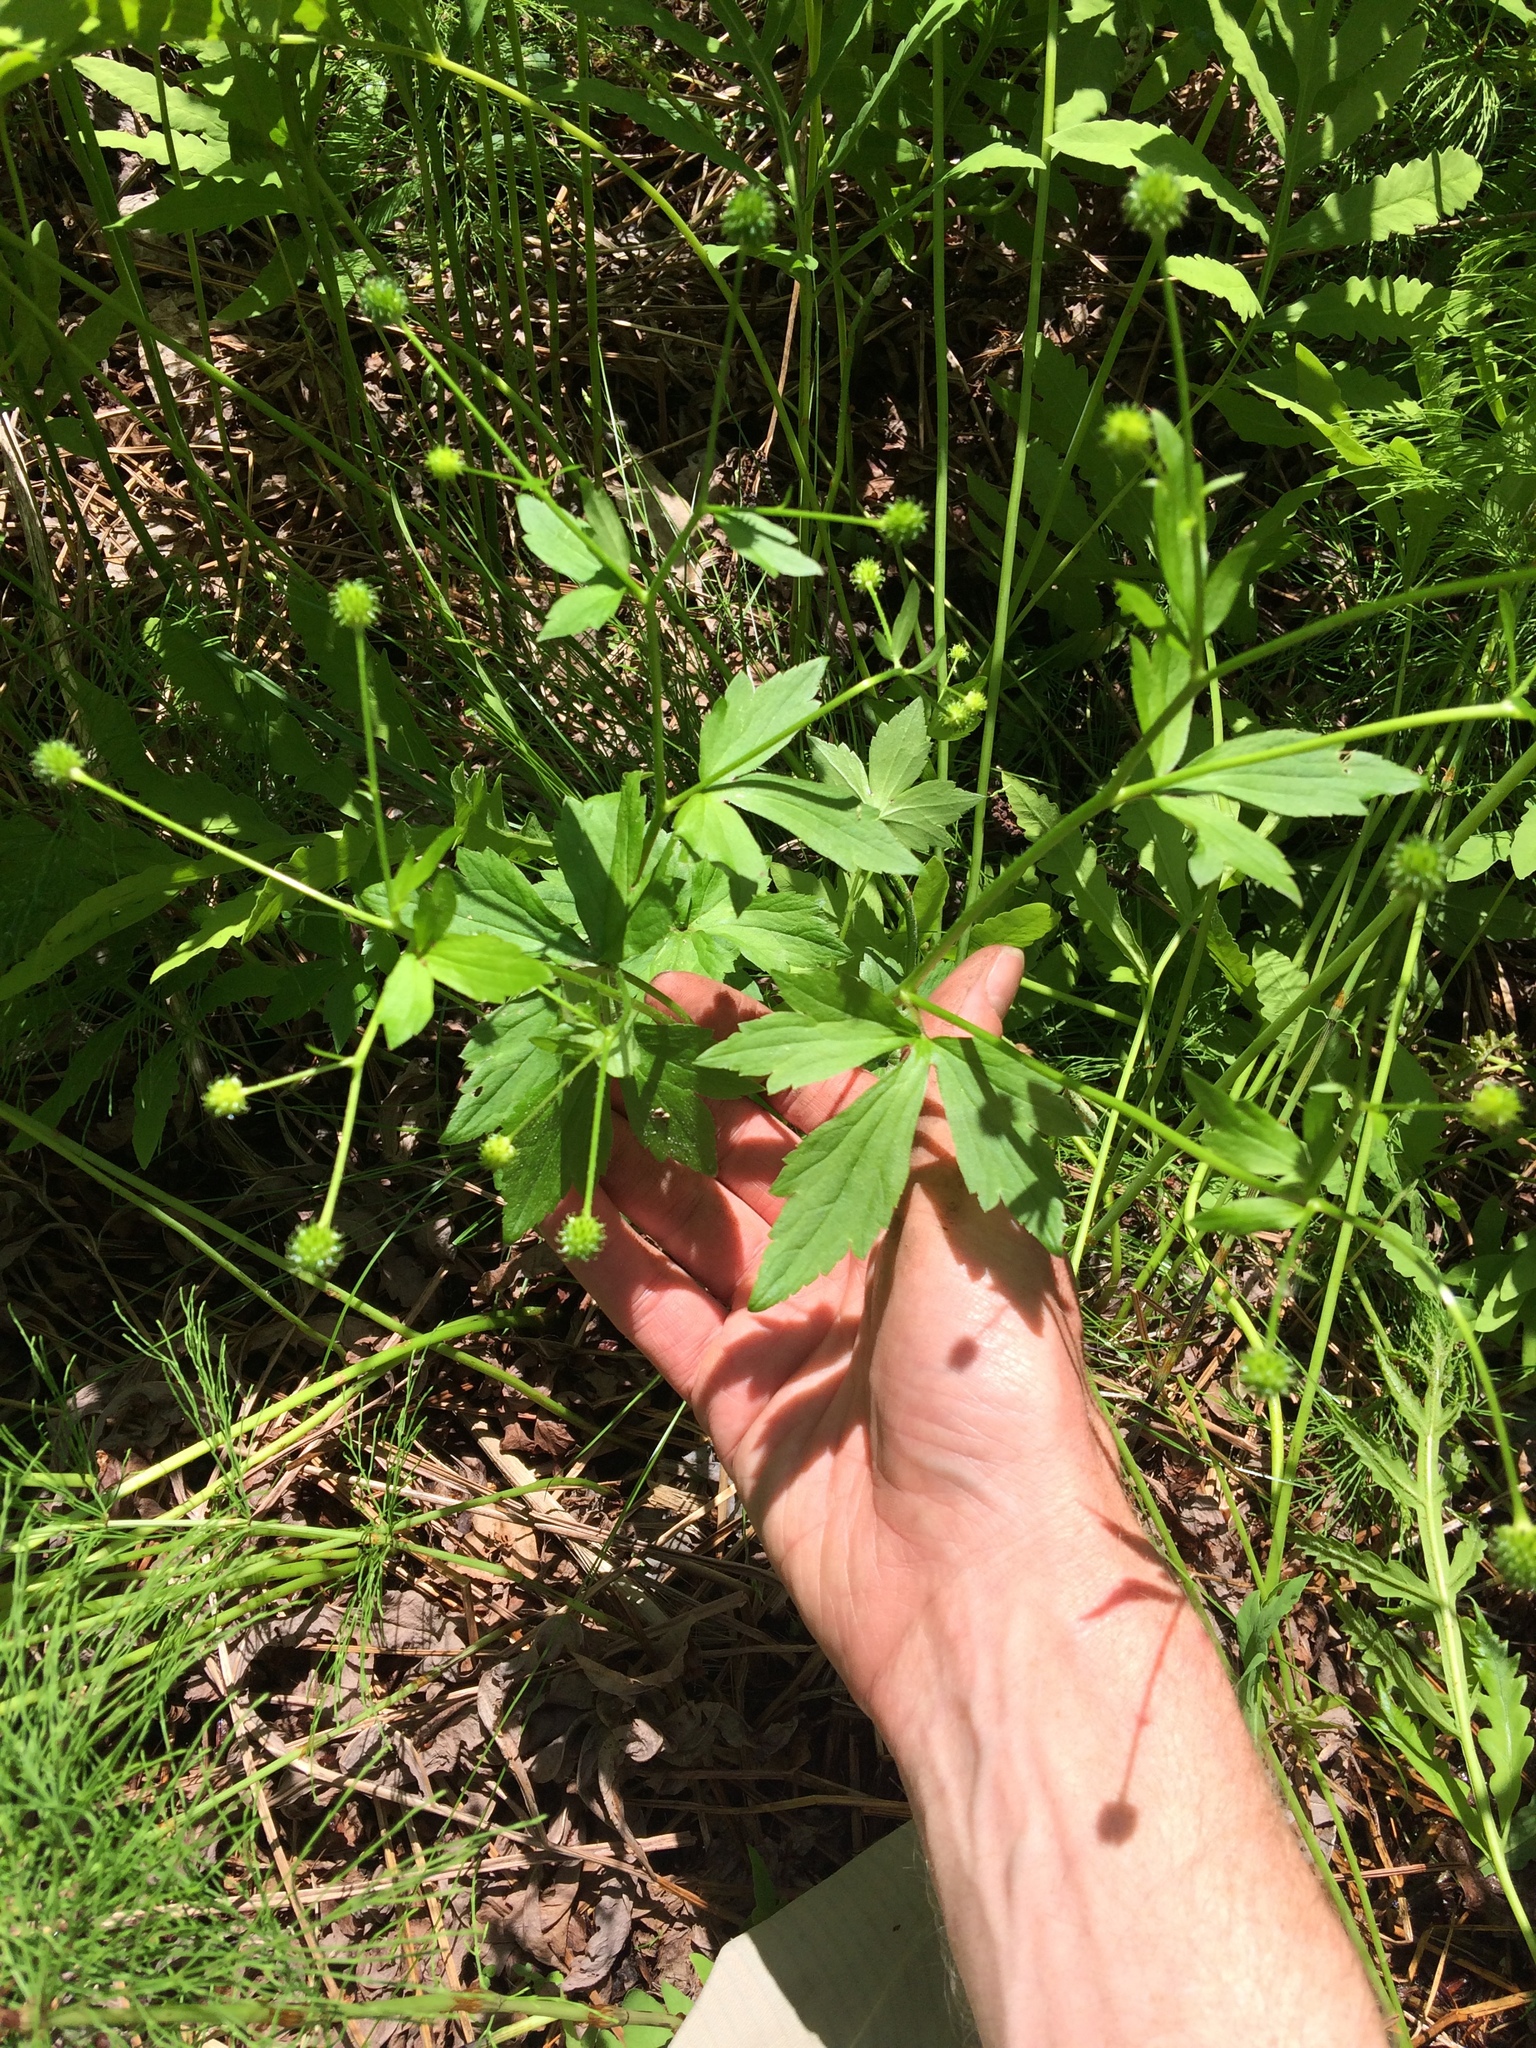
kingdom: Plantae
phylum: Tracheophyta
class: Magnoliopsida
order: Ranunculales
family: Ranunculaceae
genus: Ranunculus
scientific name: Ranunculus recurvatus
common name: Blisterwort
